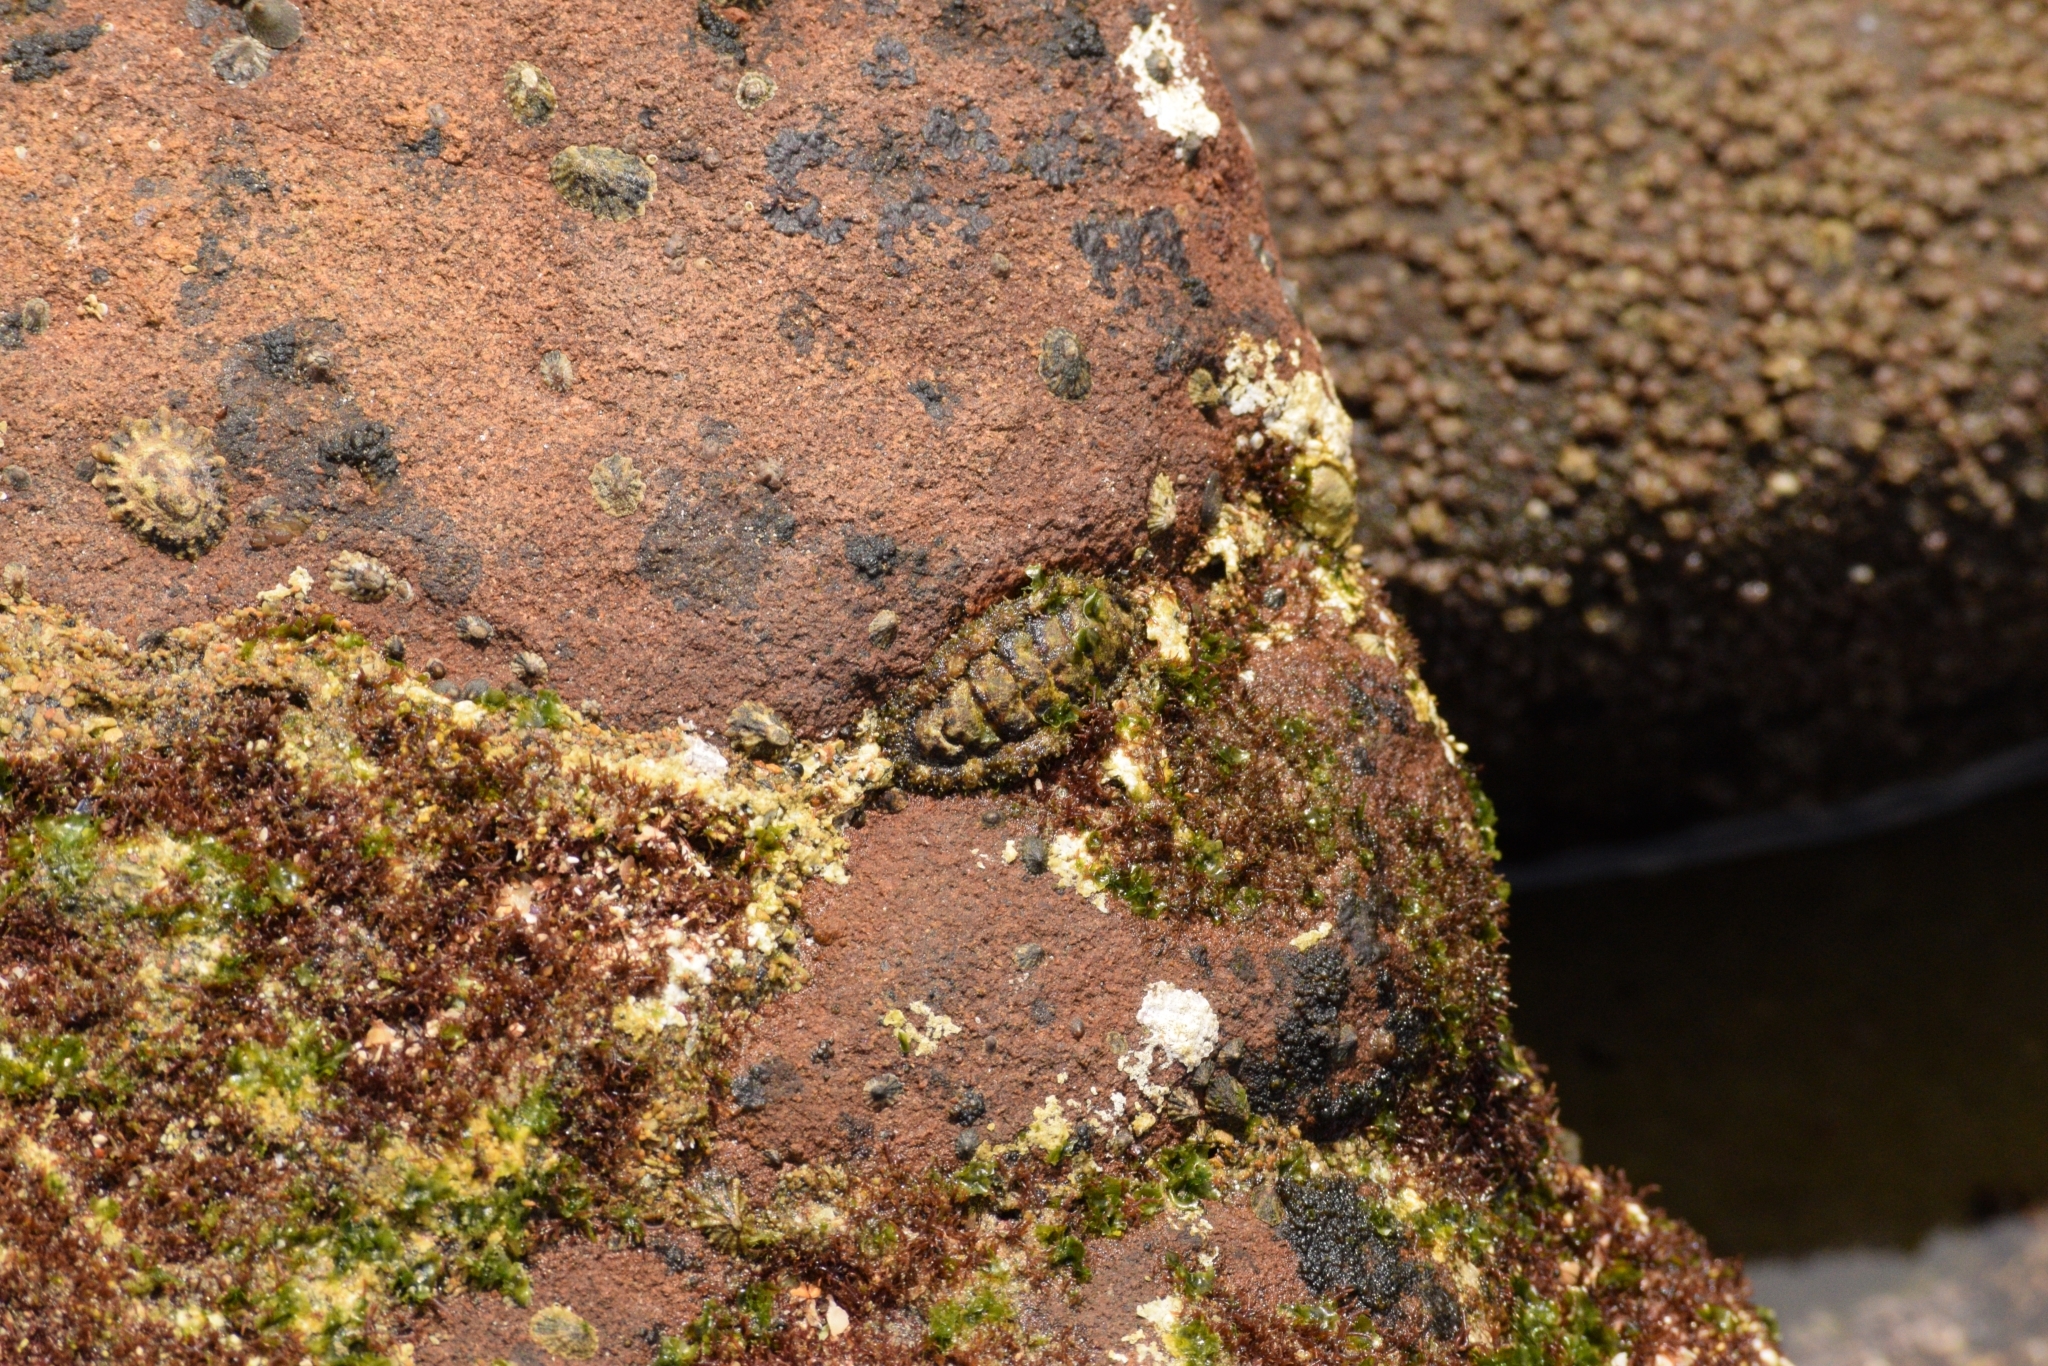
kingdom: Animalia
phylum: Mollusca
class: Polyplacophora
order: Chitonida
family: Tonicellidae
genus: Nuttallina
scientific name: Nuttallina californica
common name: California nuttall chiton
